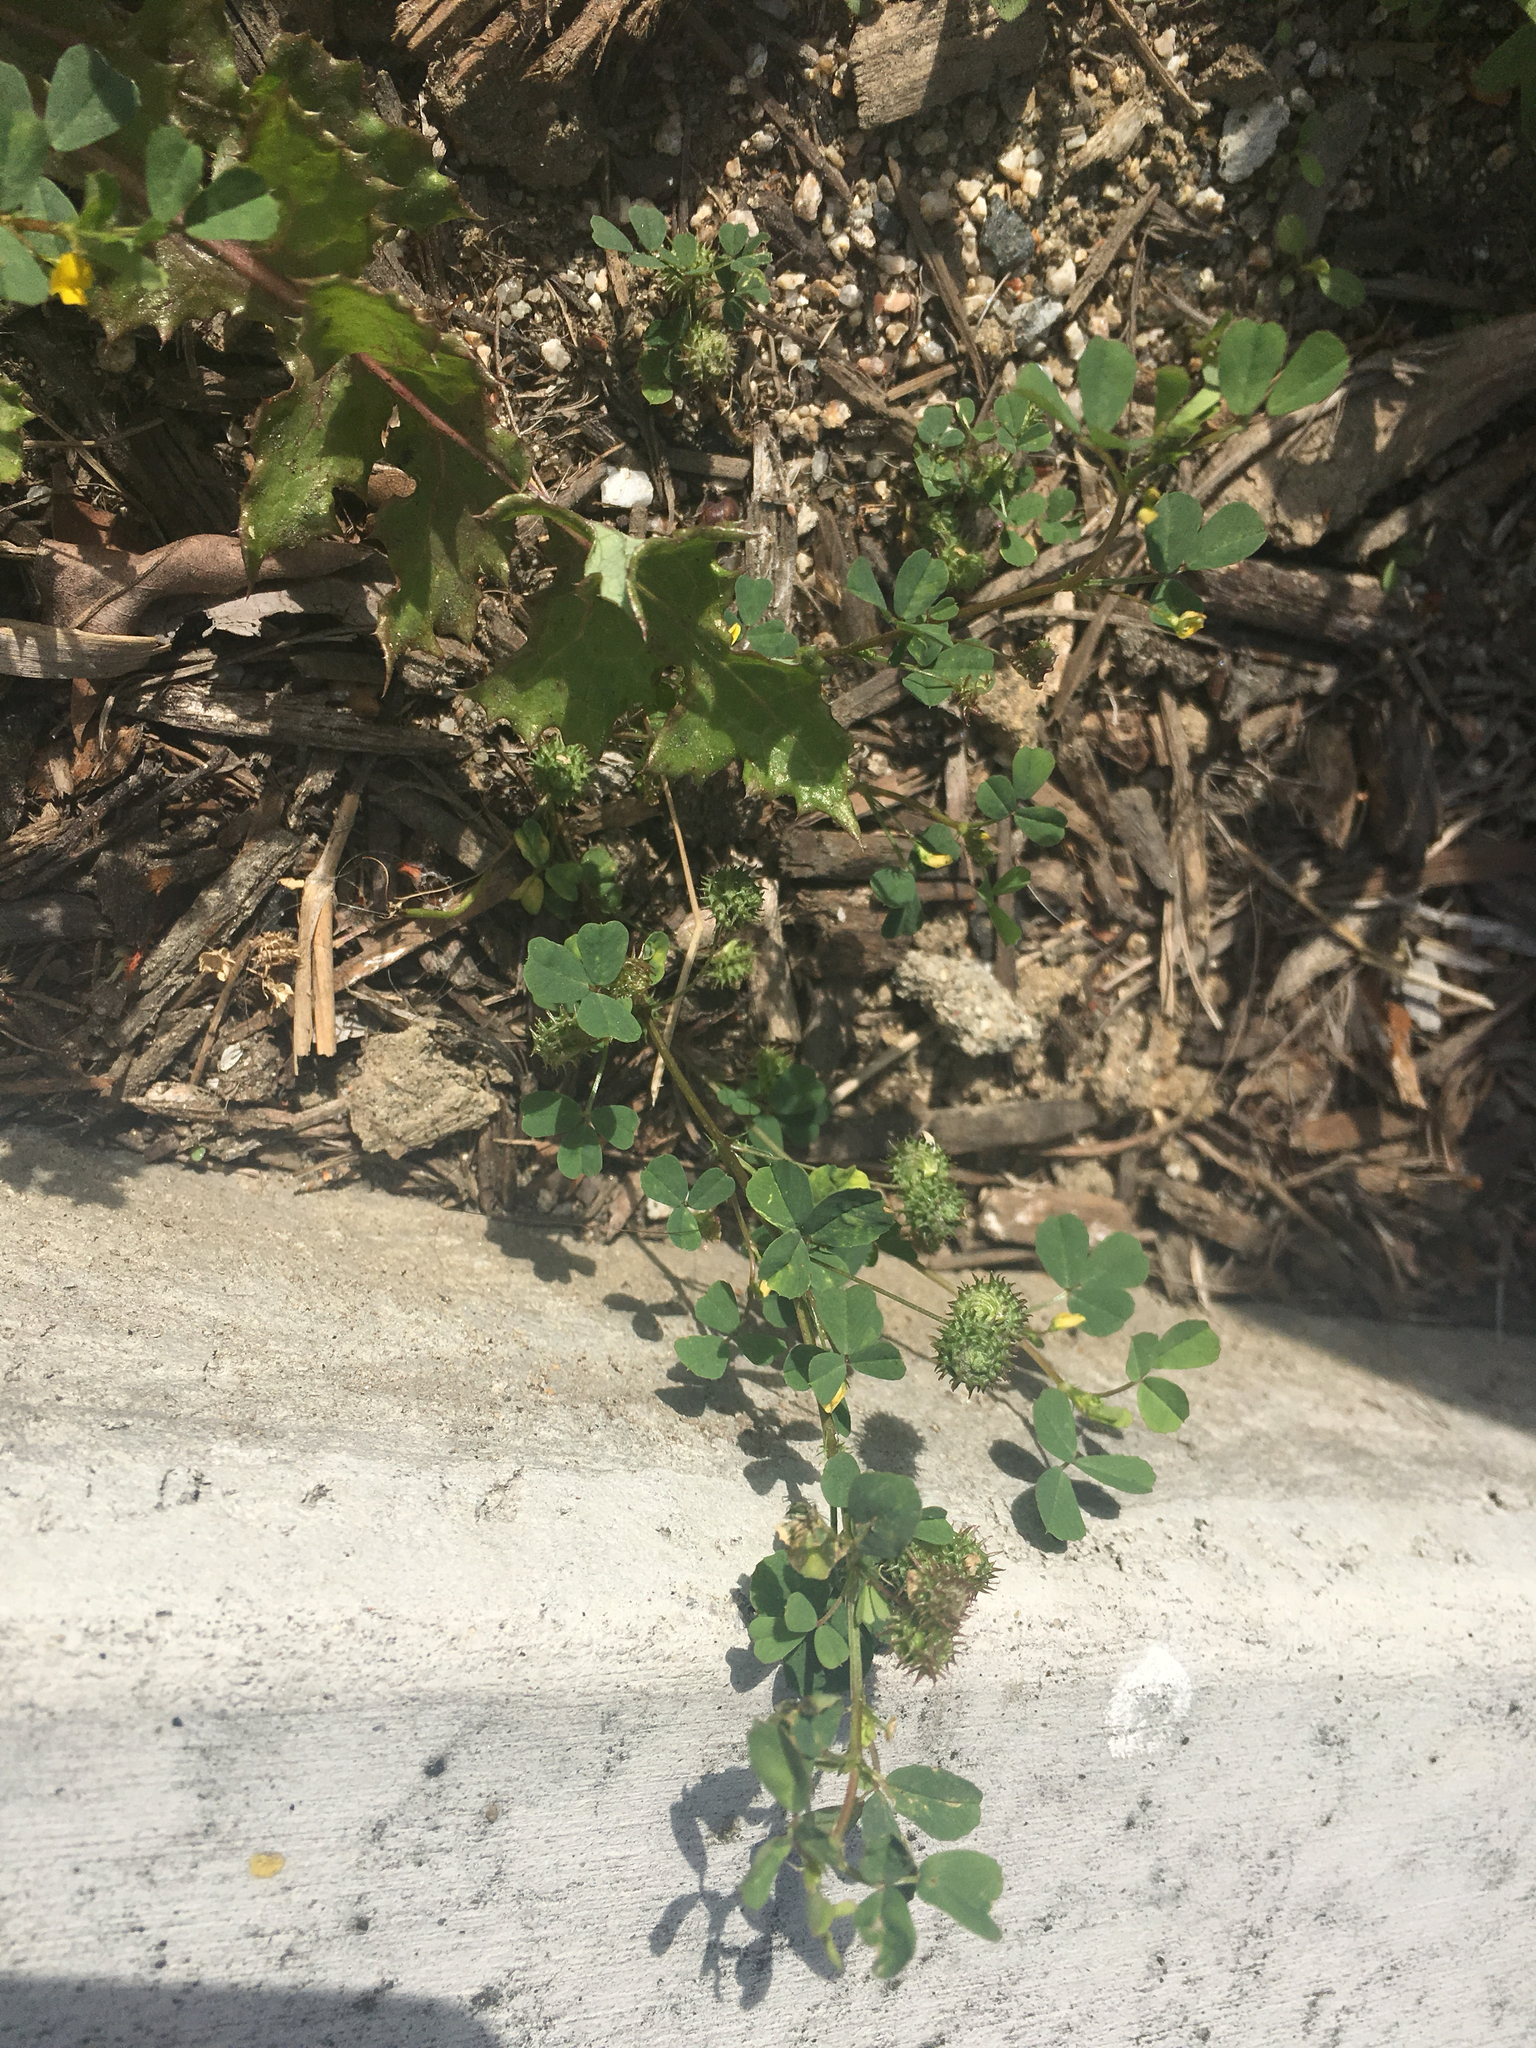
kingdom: Plantae
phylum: Tracheophyta
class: Magnoliopsida
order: Fabales
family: Fabaceae
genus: Medicago
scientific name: Medicago polymorpha
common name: Burclover
